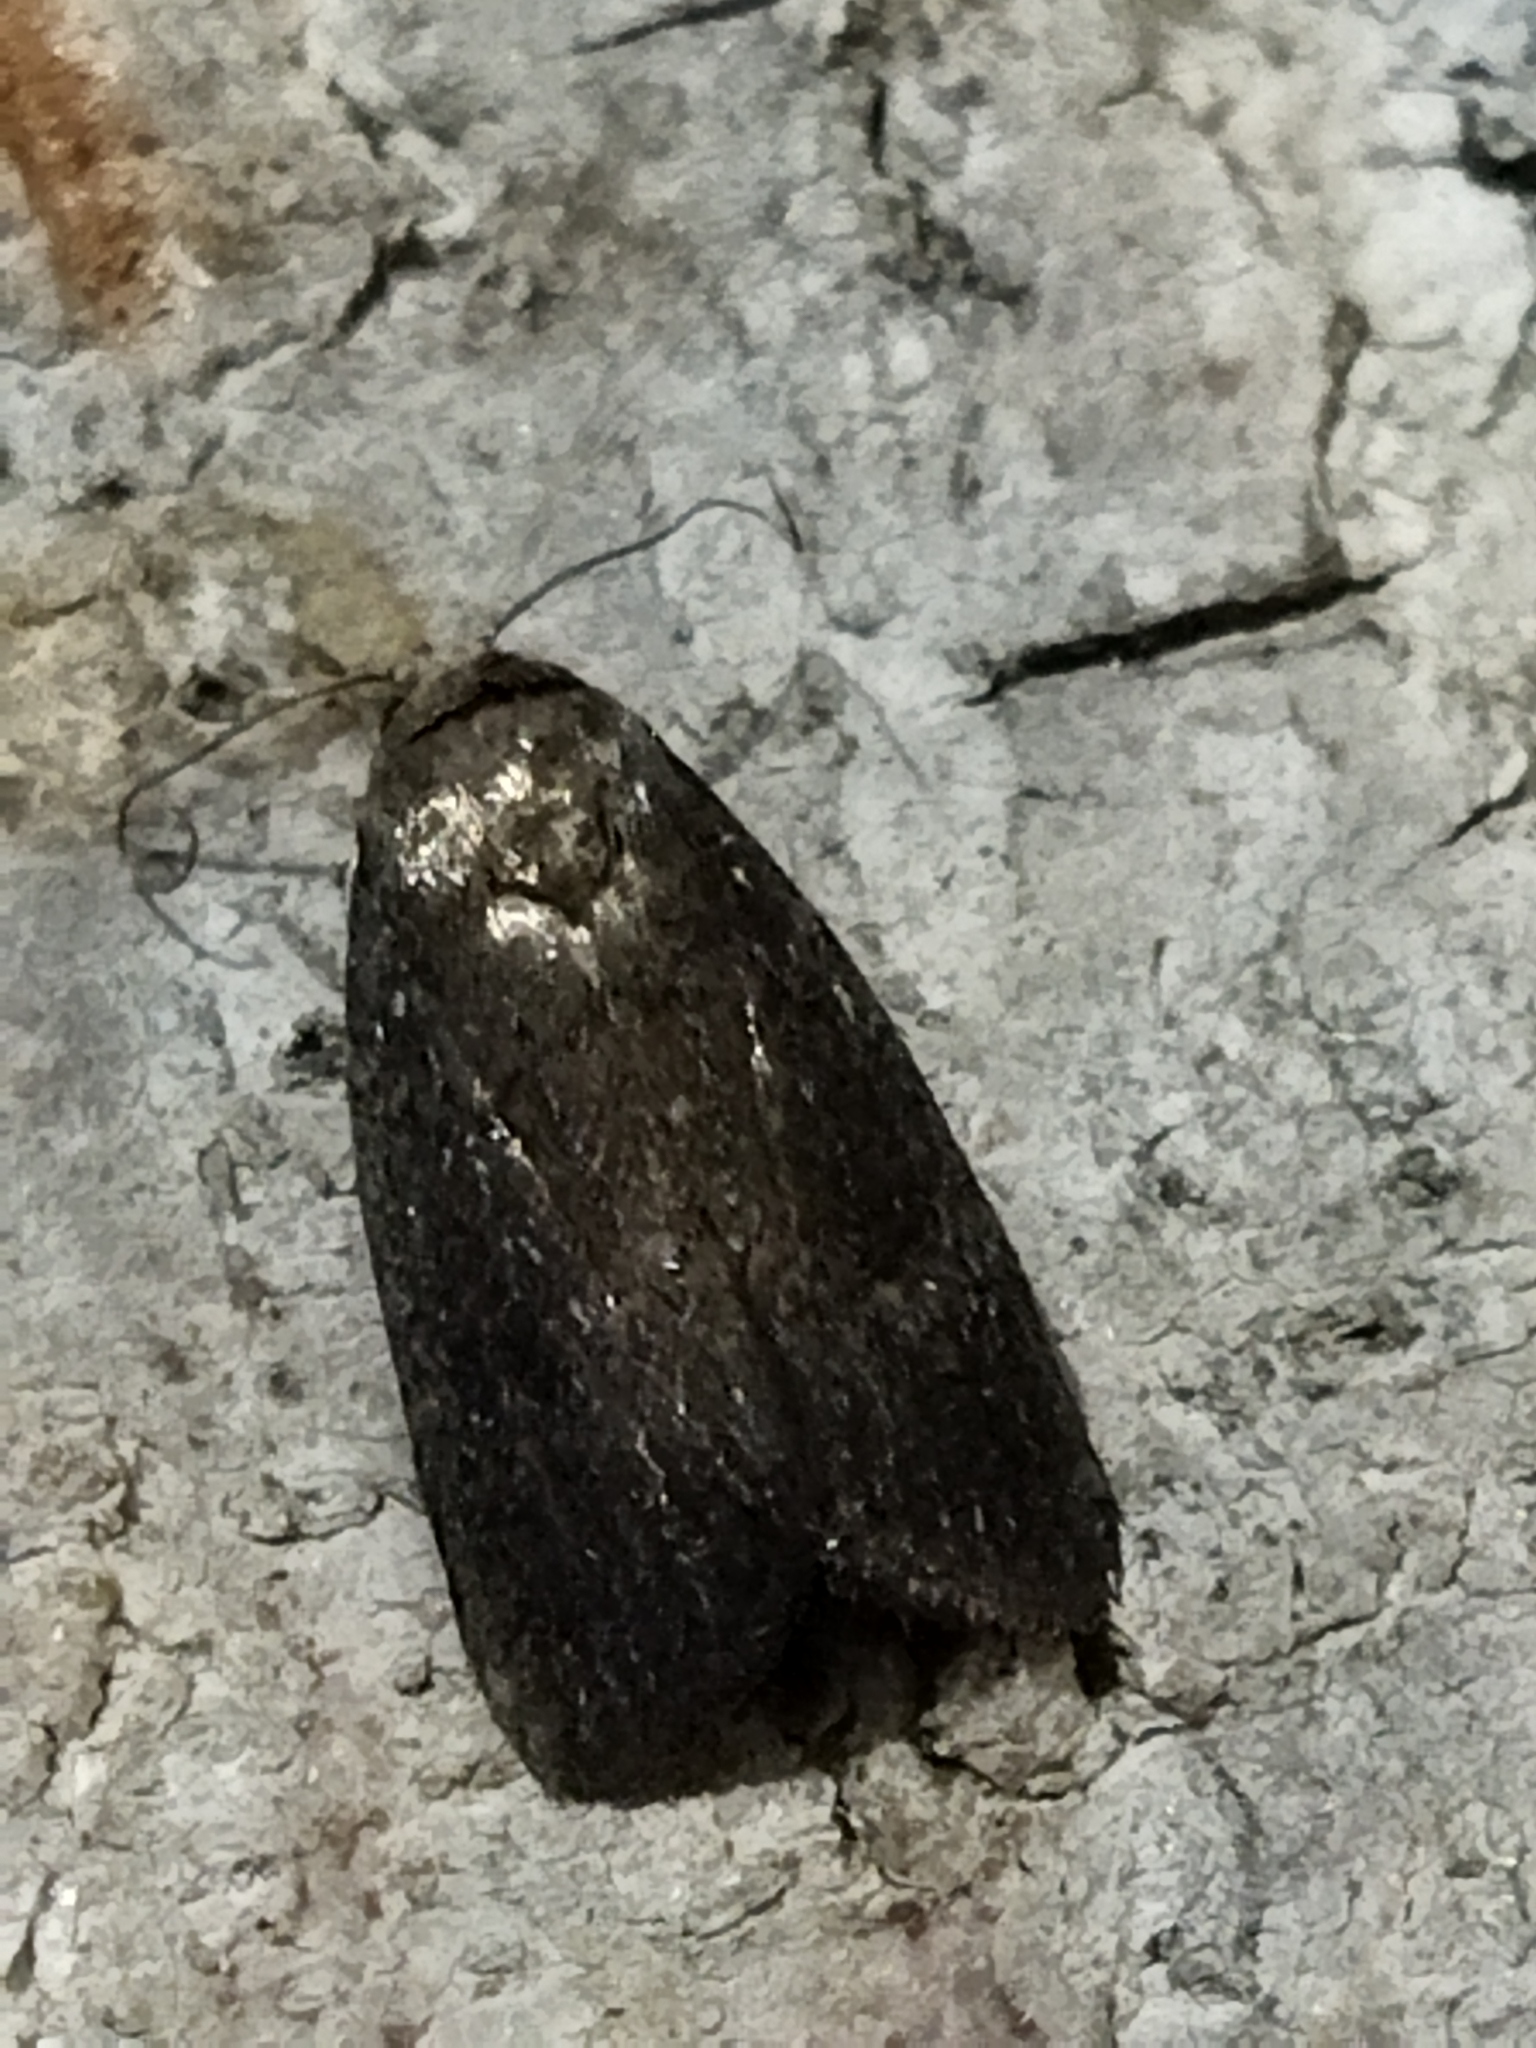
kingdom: Animalia
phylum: Arthropoda
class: Insecta
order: Lepidoptera
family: Noctuidae
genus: Athetis
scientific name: Athetis hospes
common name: Porter's rustic
